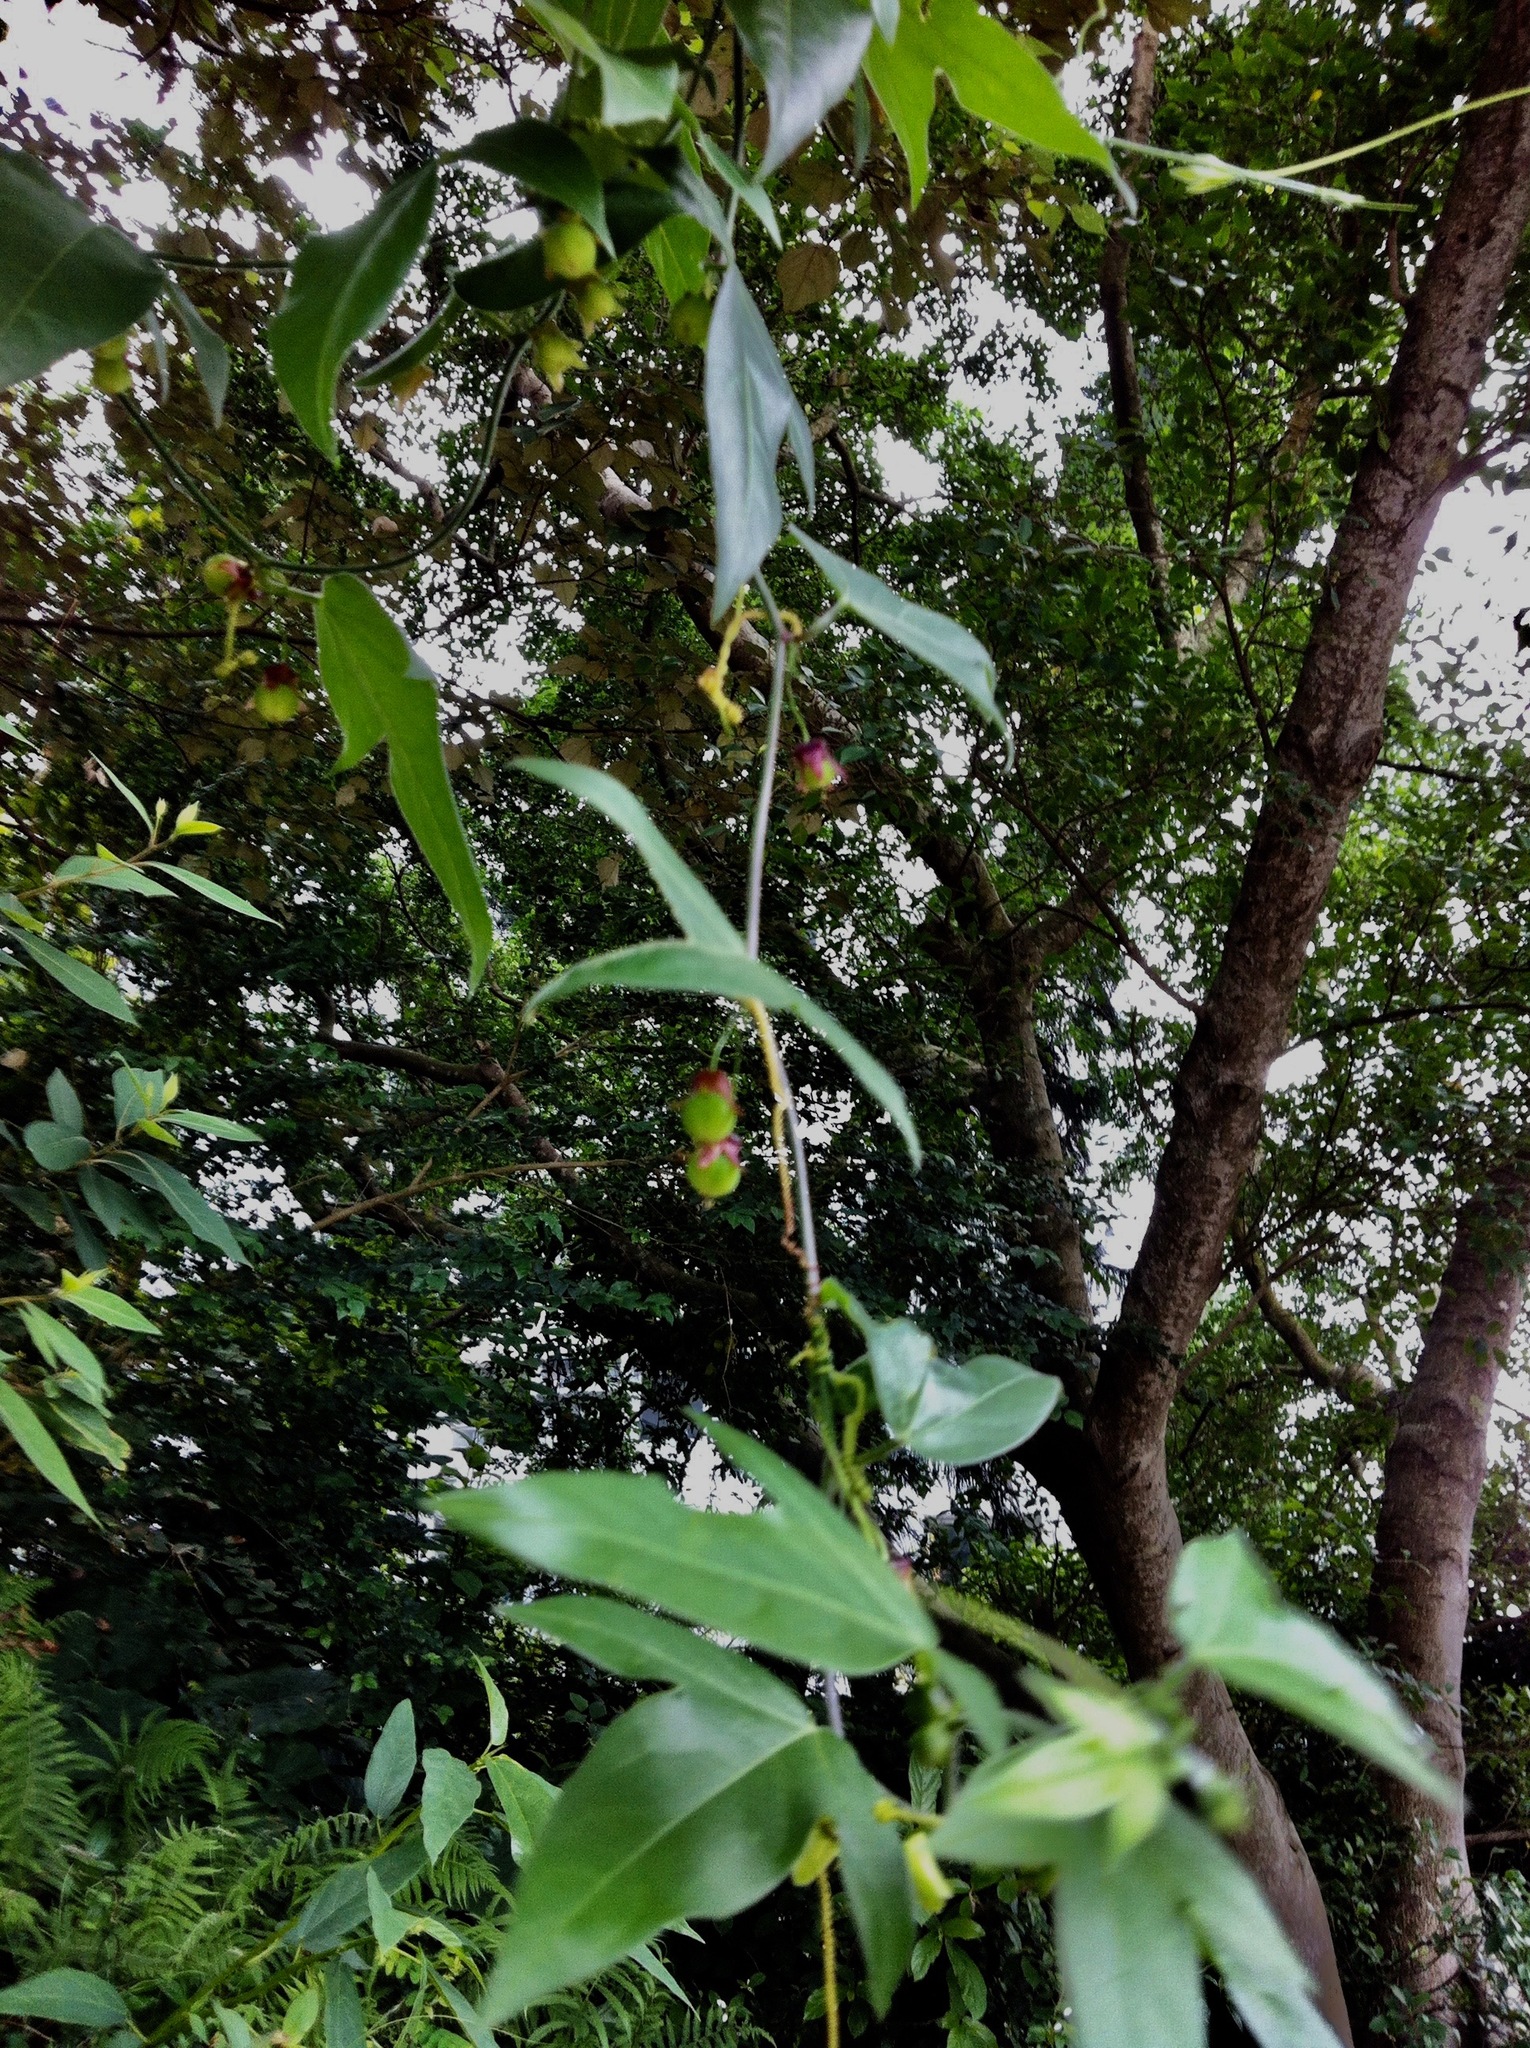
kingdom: Plantae
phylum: Tracheophyta
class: Magnoliopsida
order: Malpighiales
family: Passifloraceae
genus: Passiflora
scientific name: Passiflora suberosa
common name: Wild passionfruit
